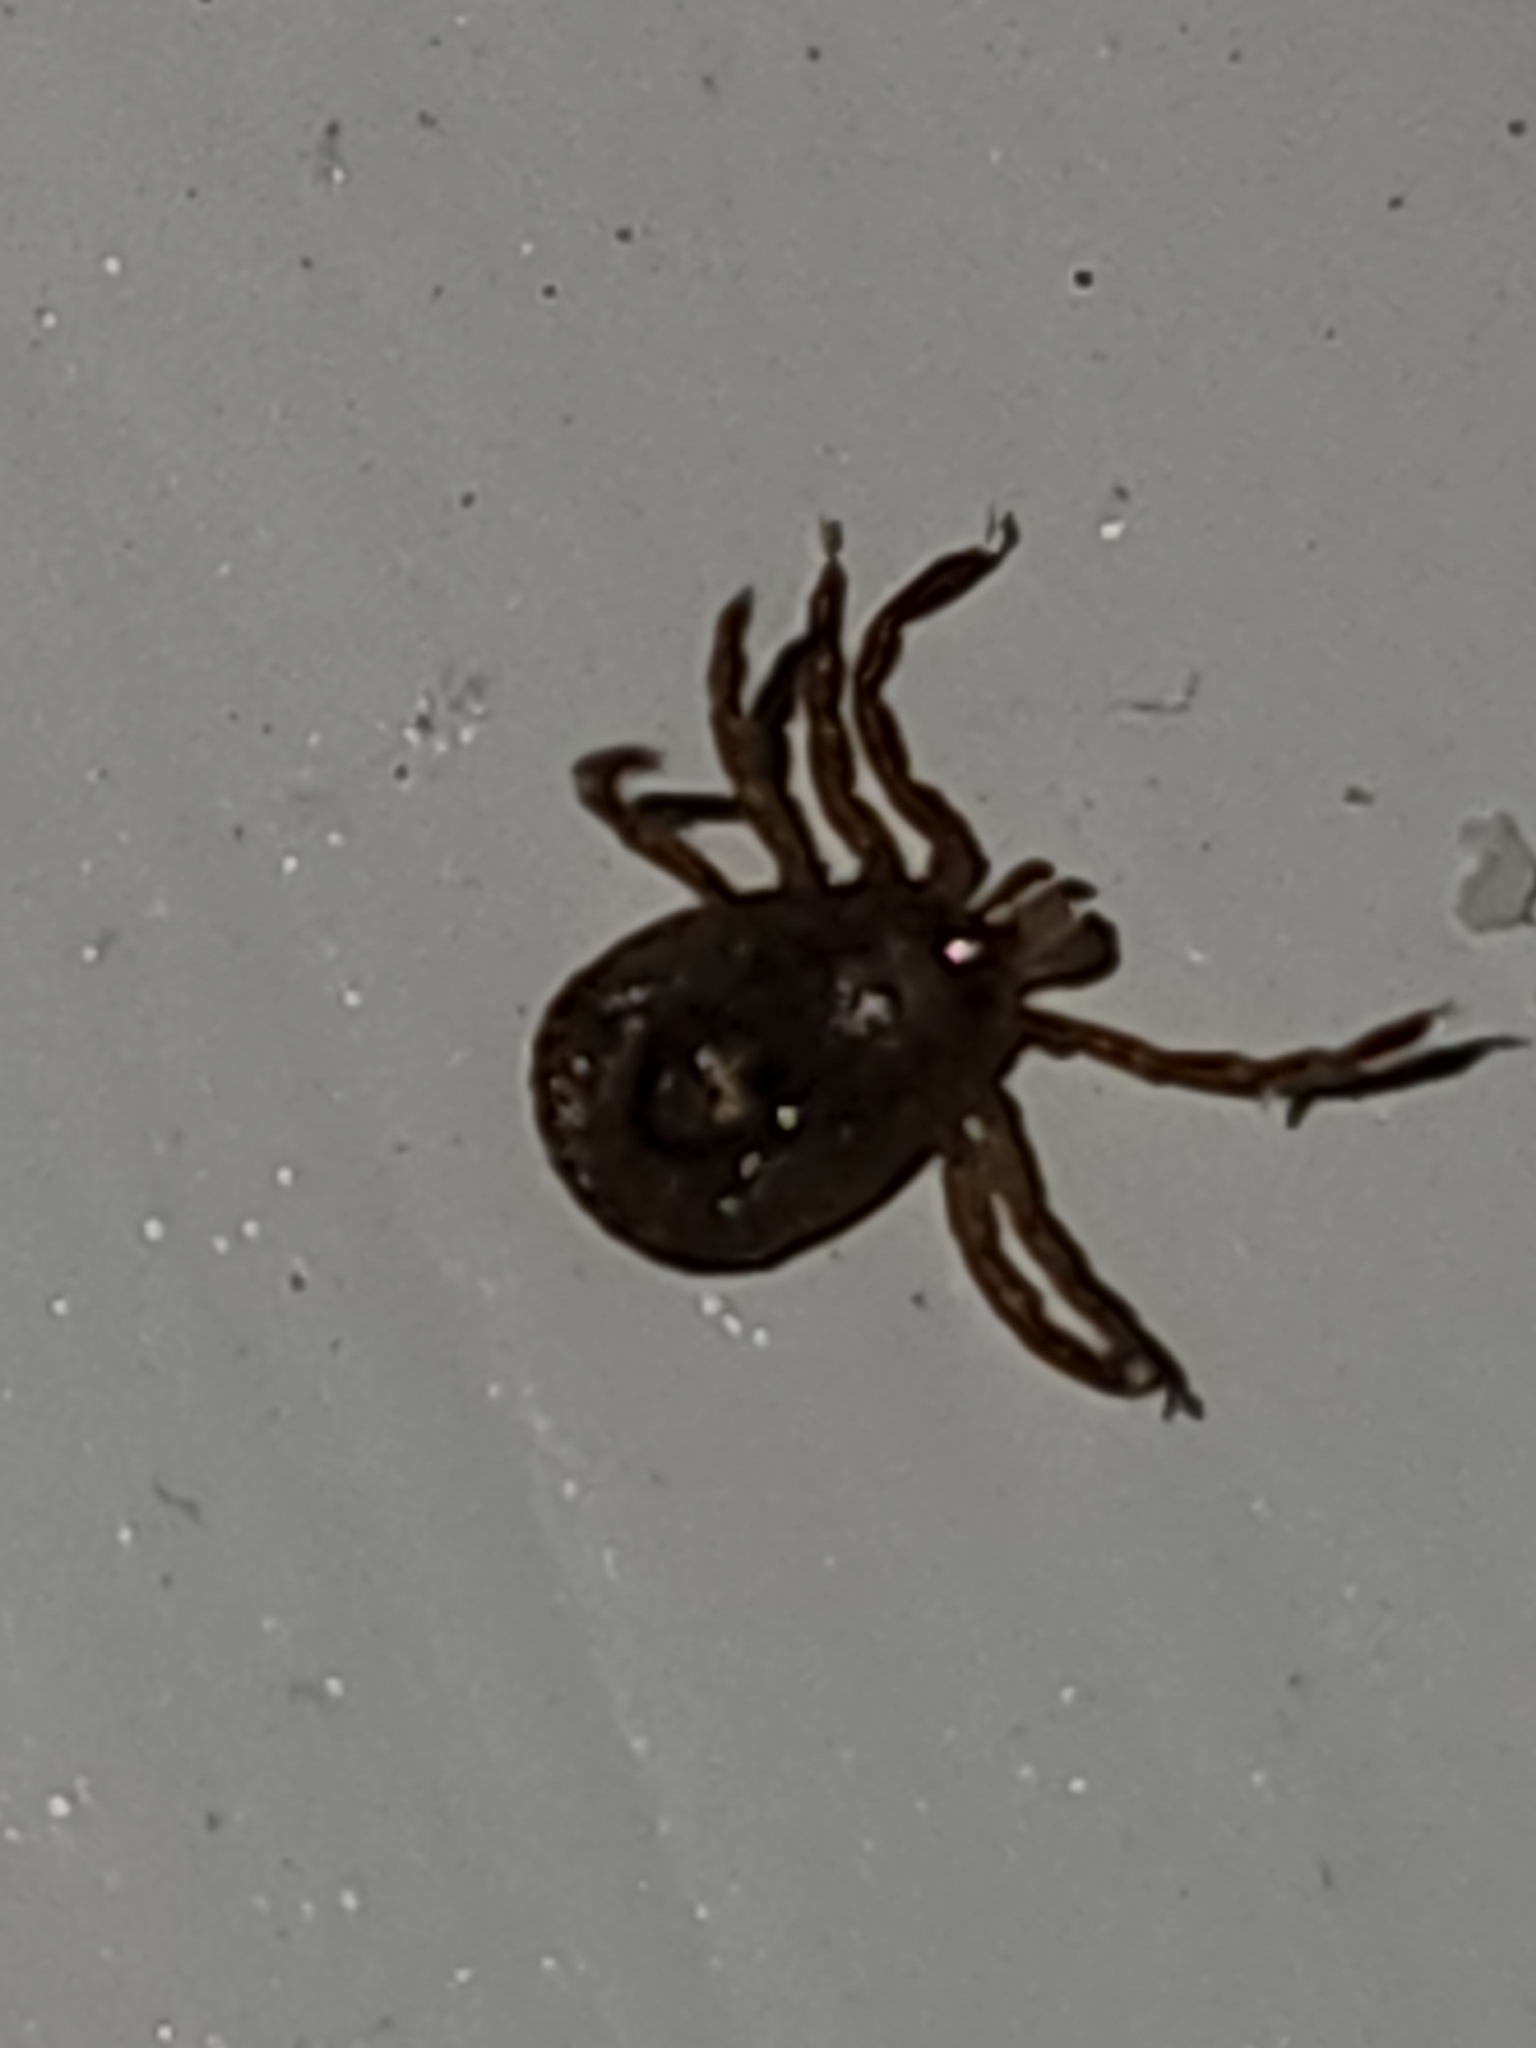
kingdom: Animalia
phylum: Arthropoda
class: Arachnida
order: Ixodida
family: Ixodidae
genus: Amblyomma
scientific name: Amblyomma americanum
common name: Lone star tick
